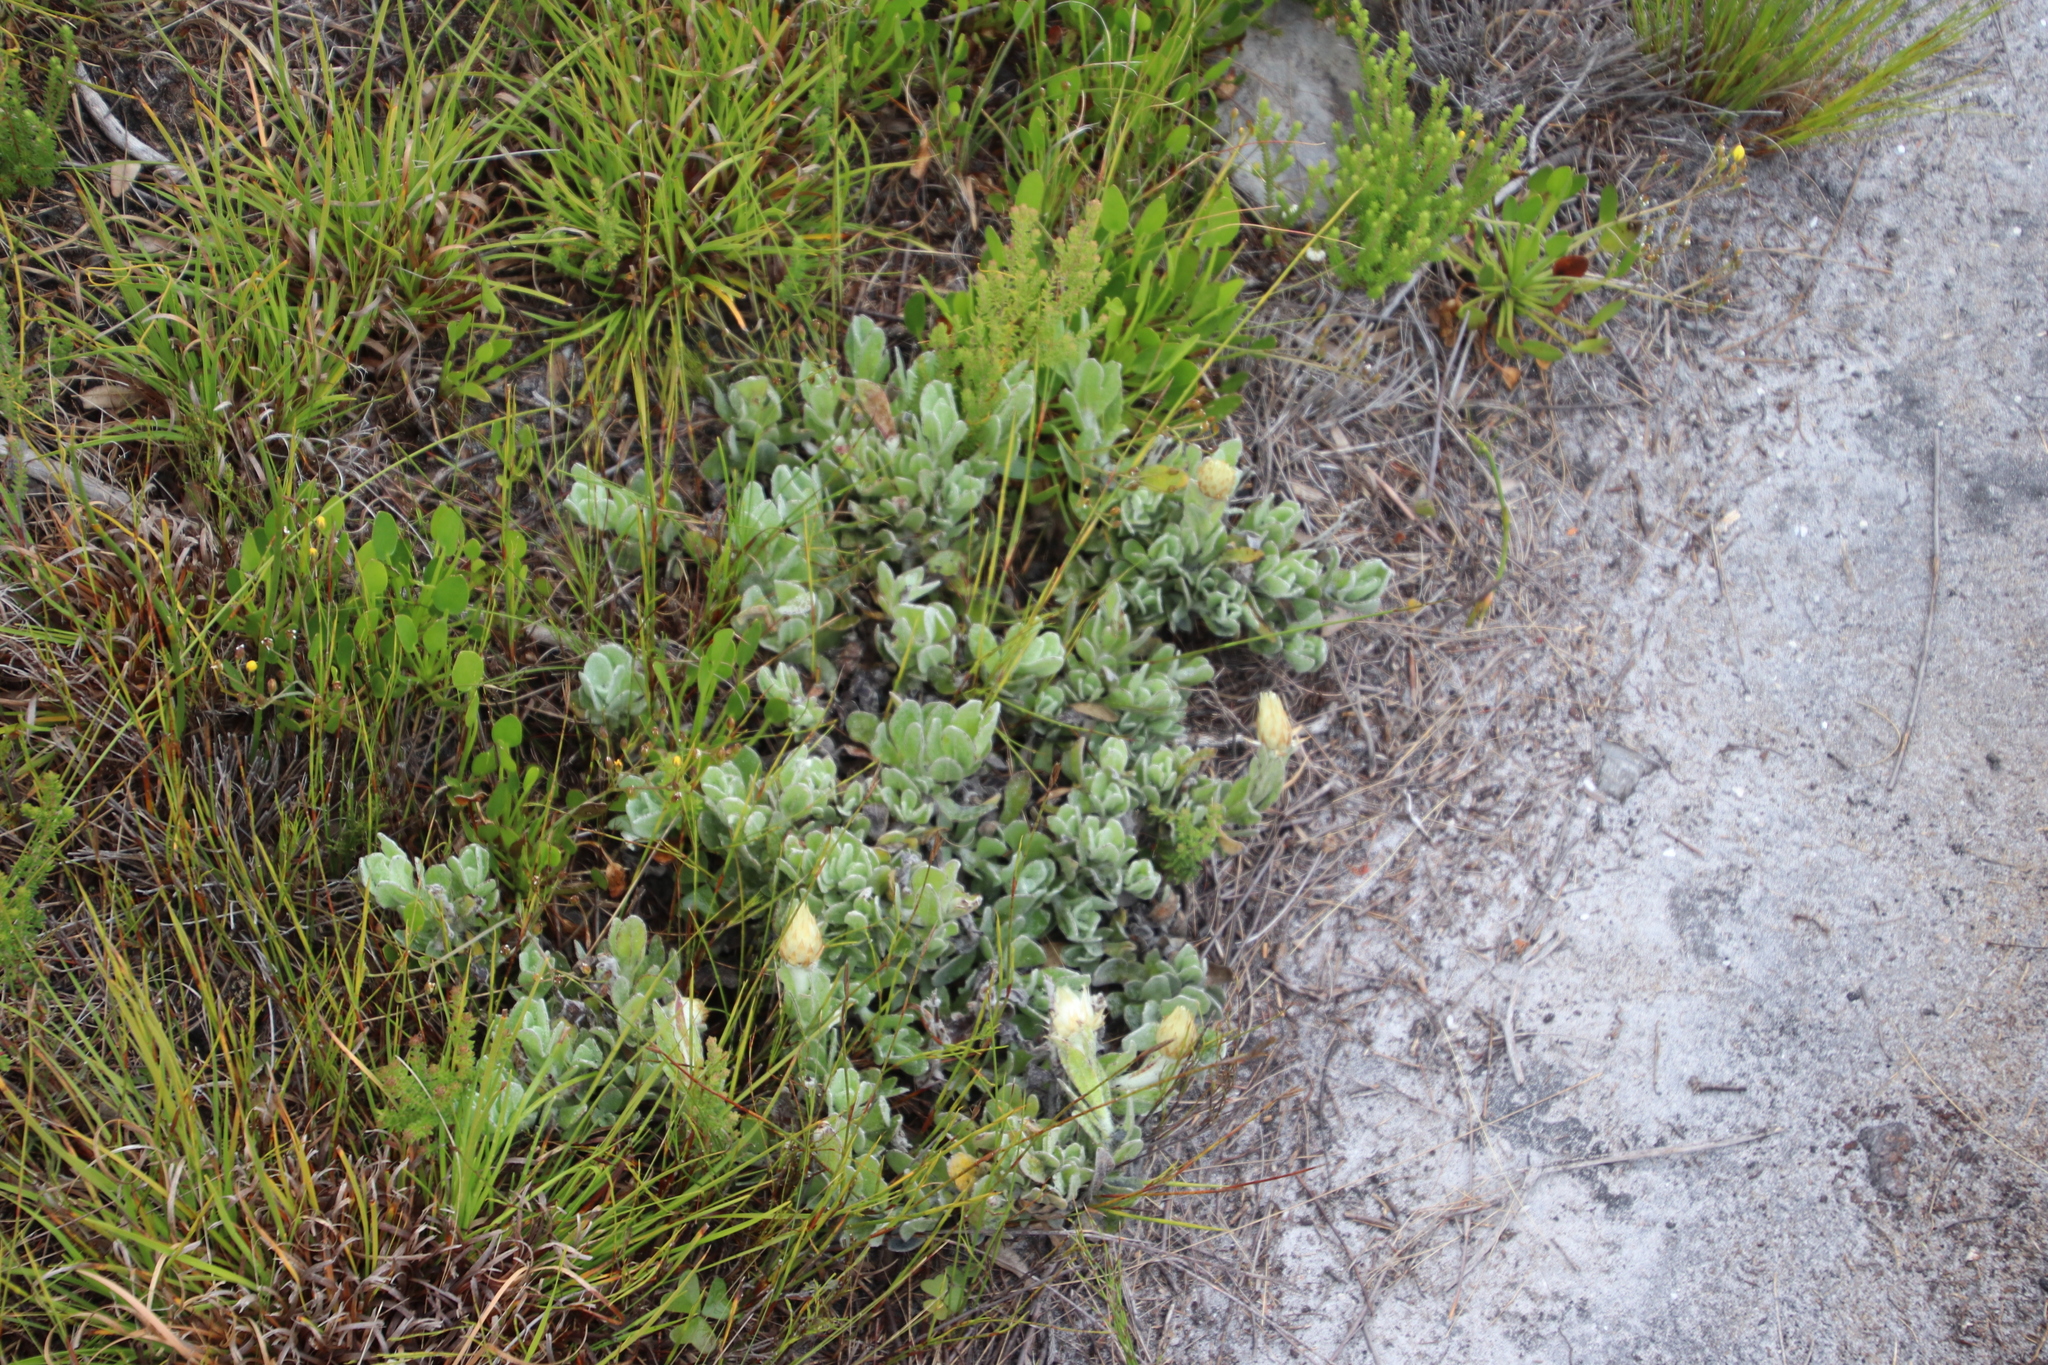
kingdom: Plantae
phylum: Tracheophyta
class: Magnoliopsida
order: Asterales
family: Asteraceae
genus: Syncarpha
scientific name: Syncarpha speciosissima
